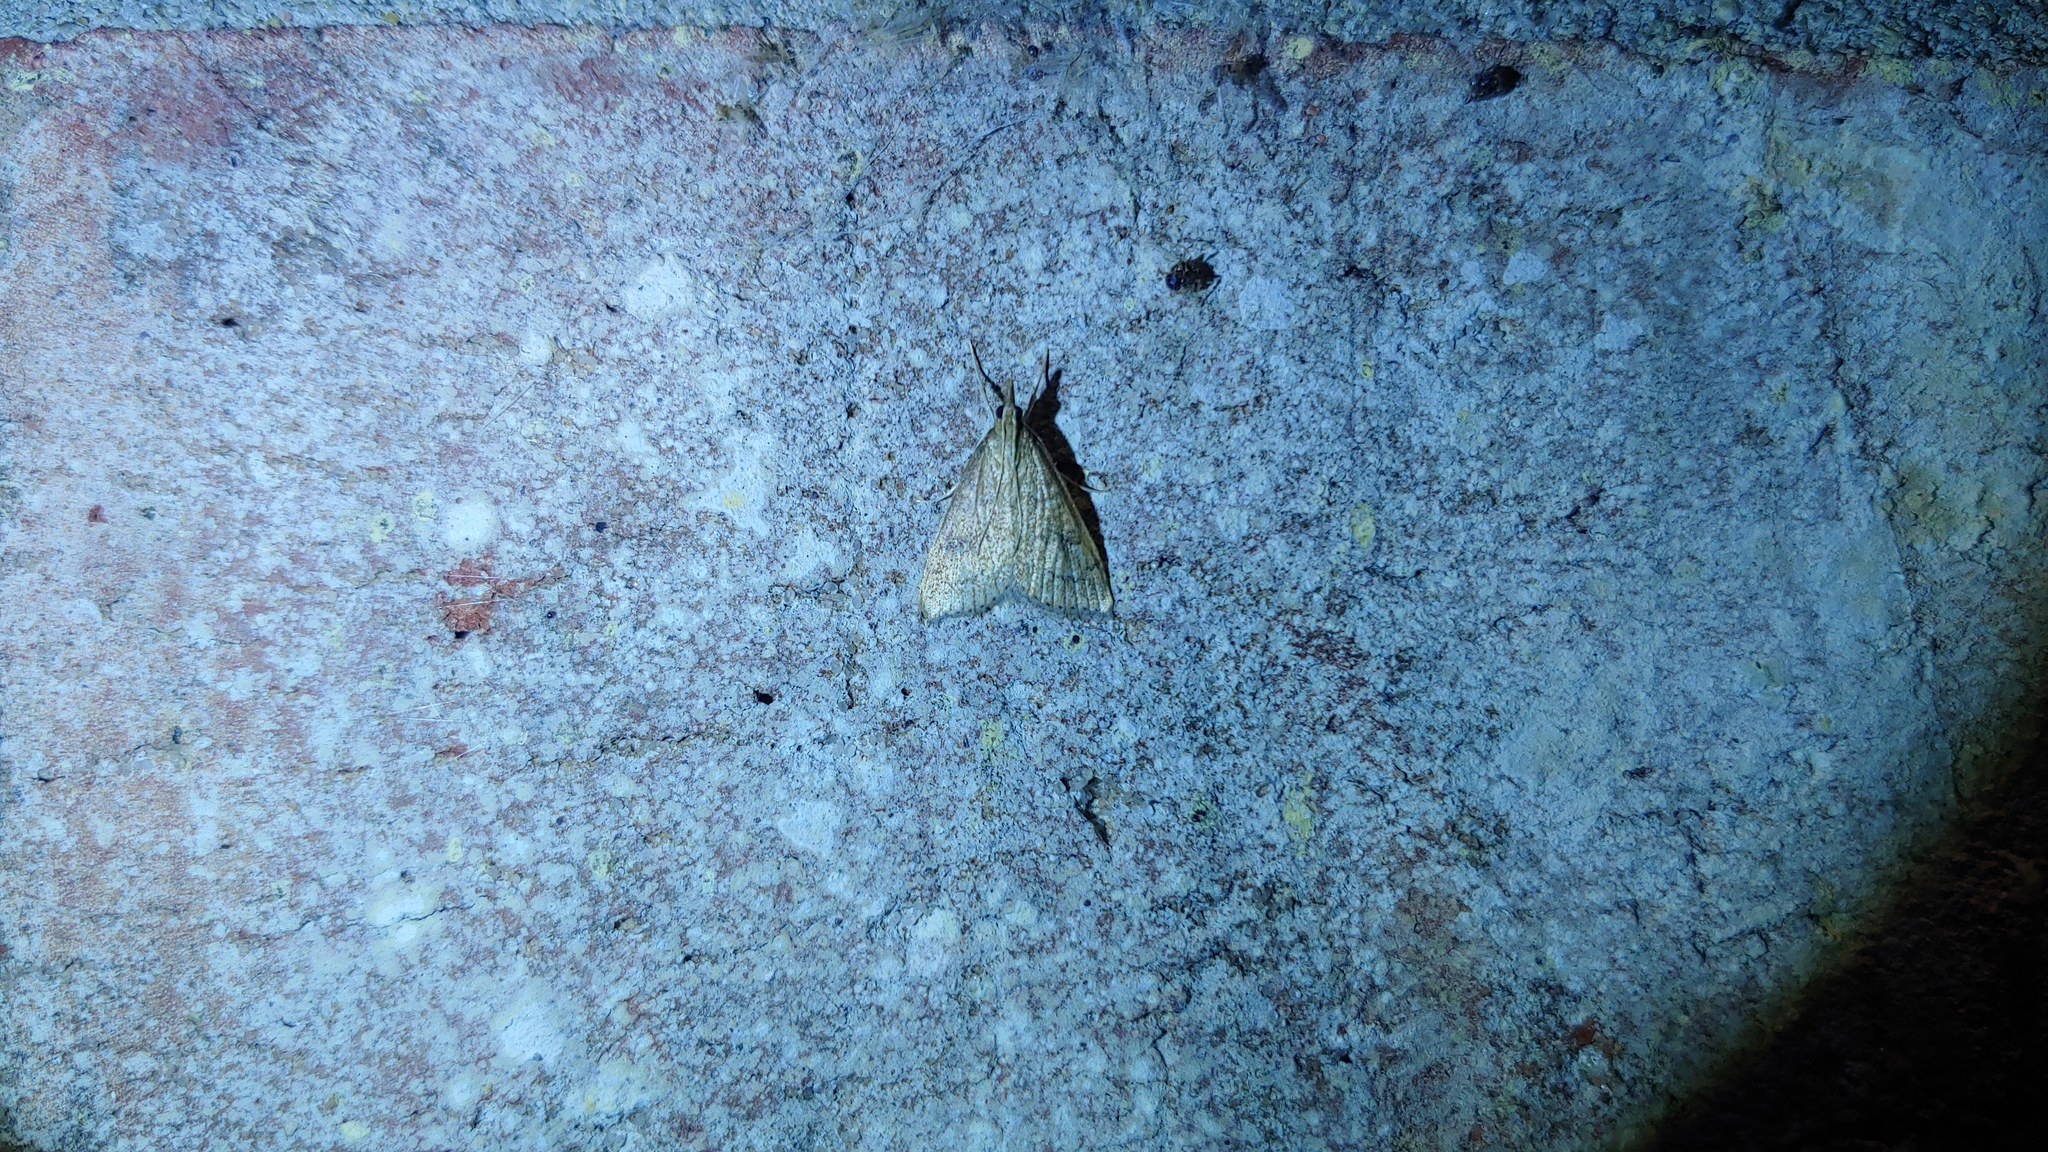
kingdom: Animalia
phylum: Arthropoda
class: Insecta
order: Lepidoptera
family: Crambidae
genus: Udea
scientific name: Udea rubigalis
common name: Celery leaftier moth
